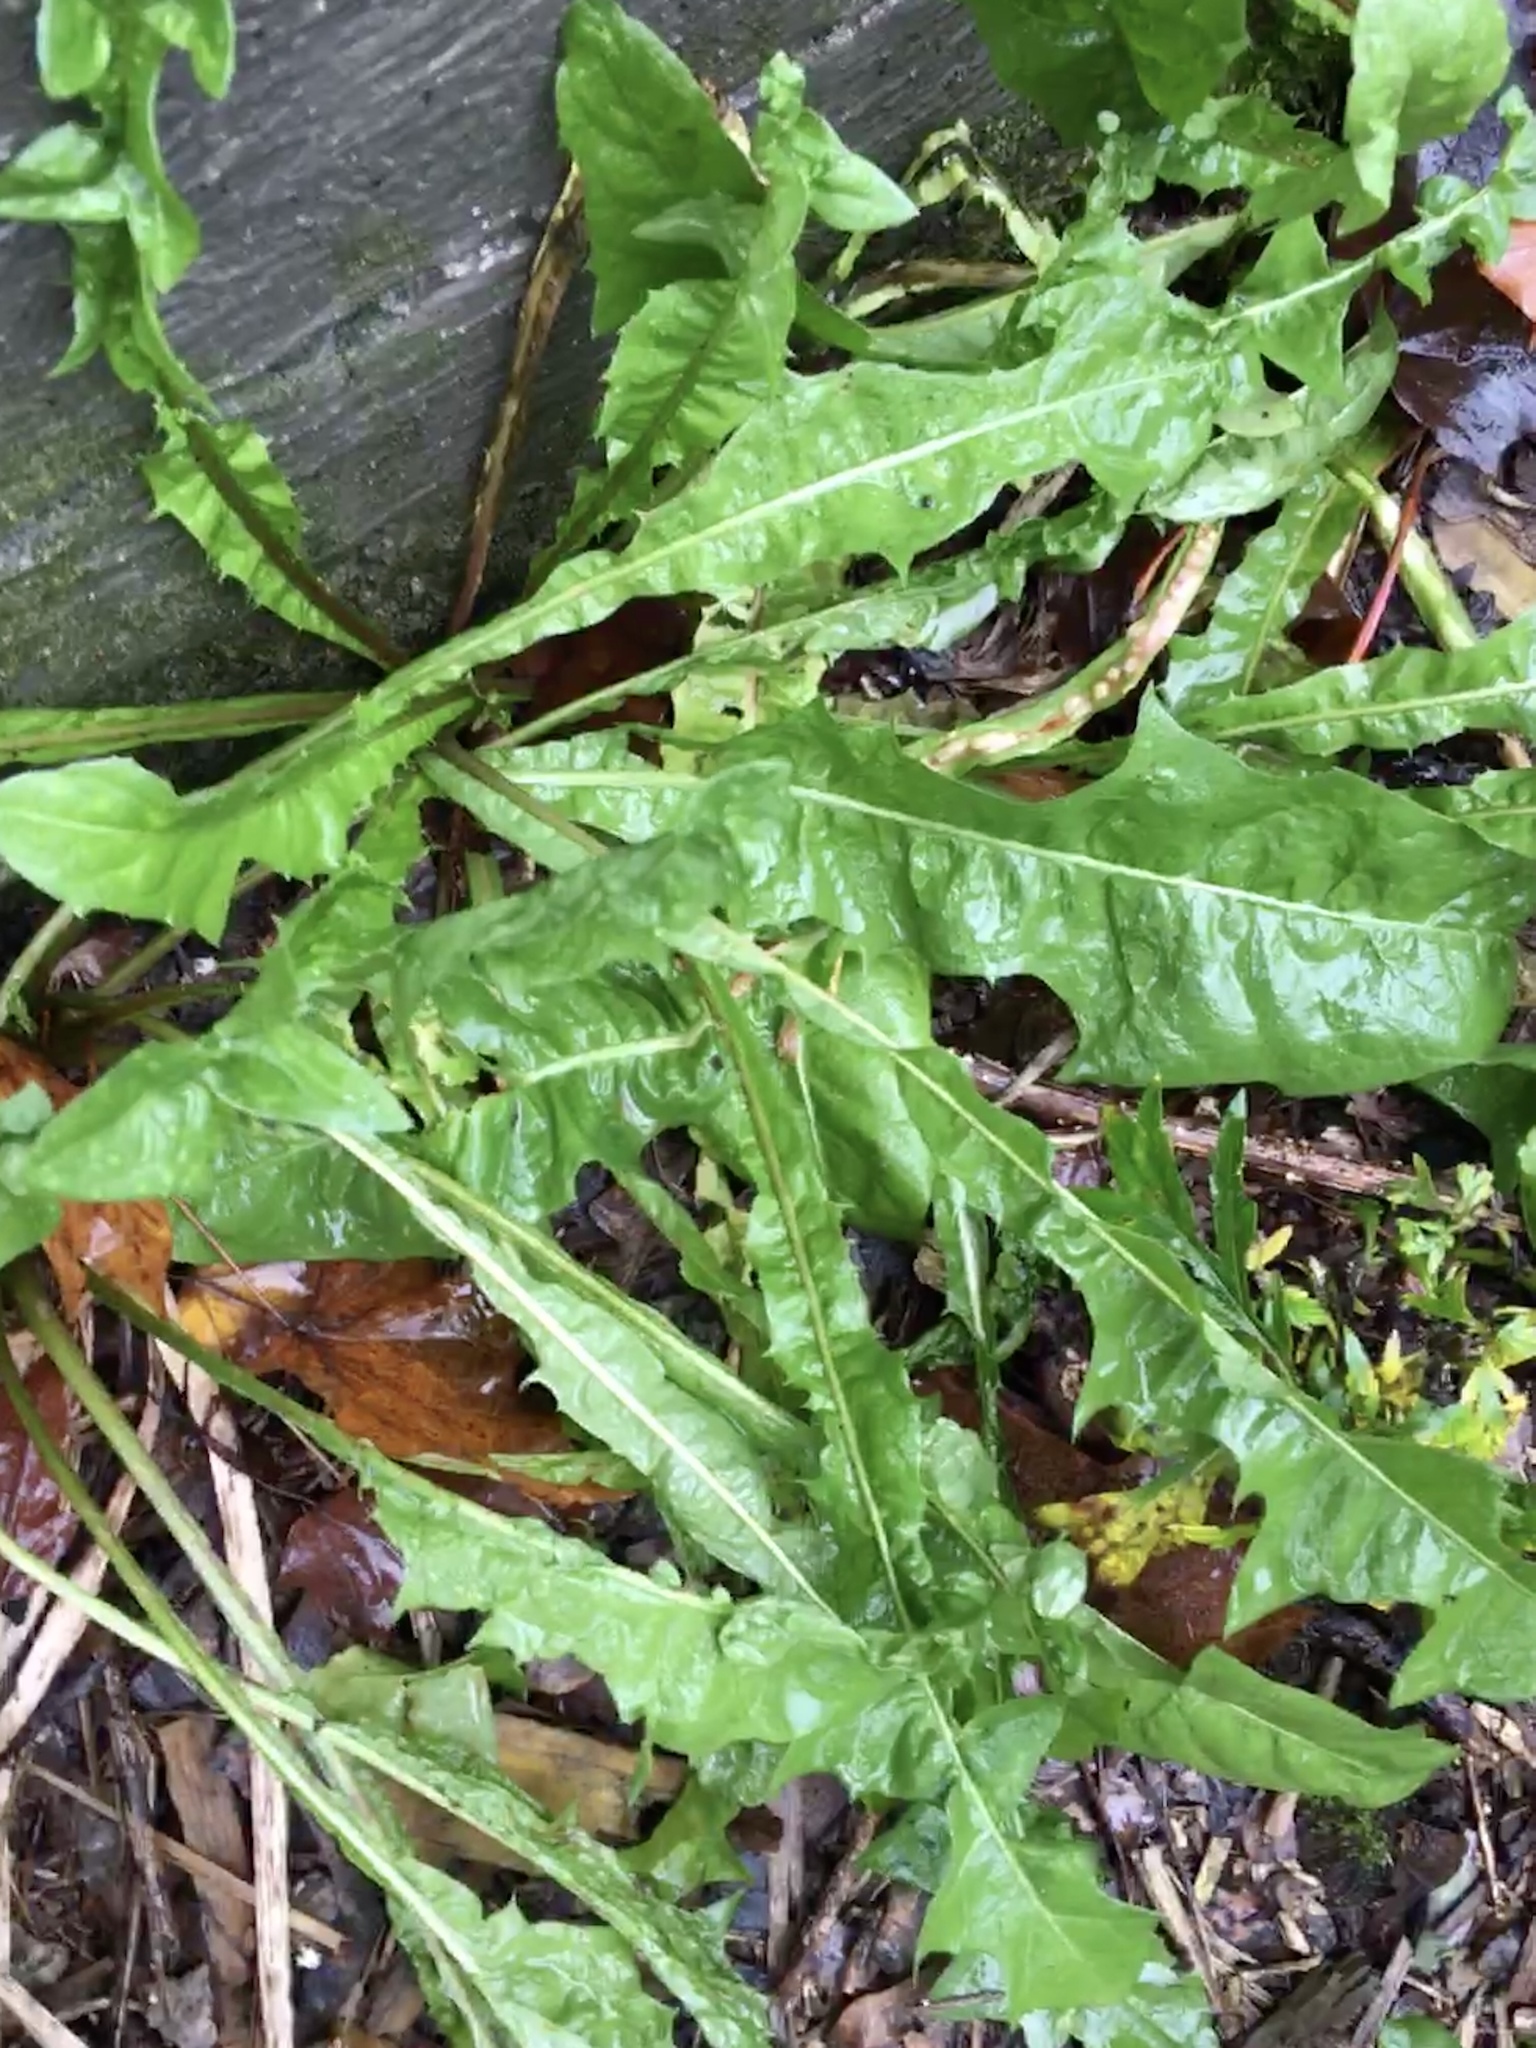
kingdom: Plantae
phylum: Tracheophyta
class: Magnoliopsida
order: Asterales
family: Asteraceae
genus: Taraxacum
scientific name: Taraxacum officinale
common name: Common dandelion
